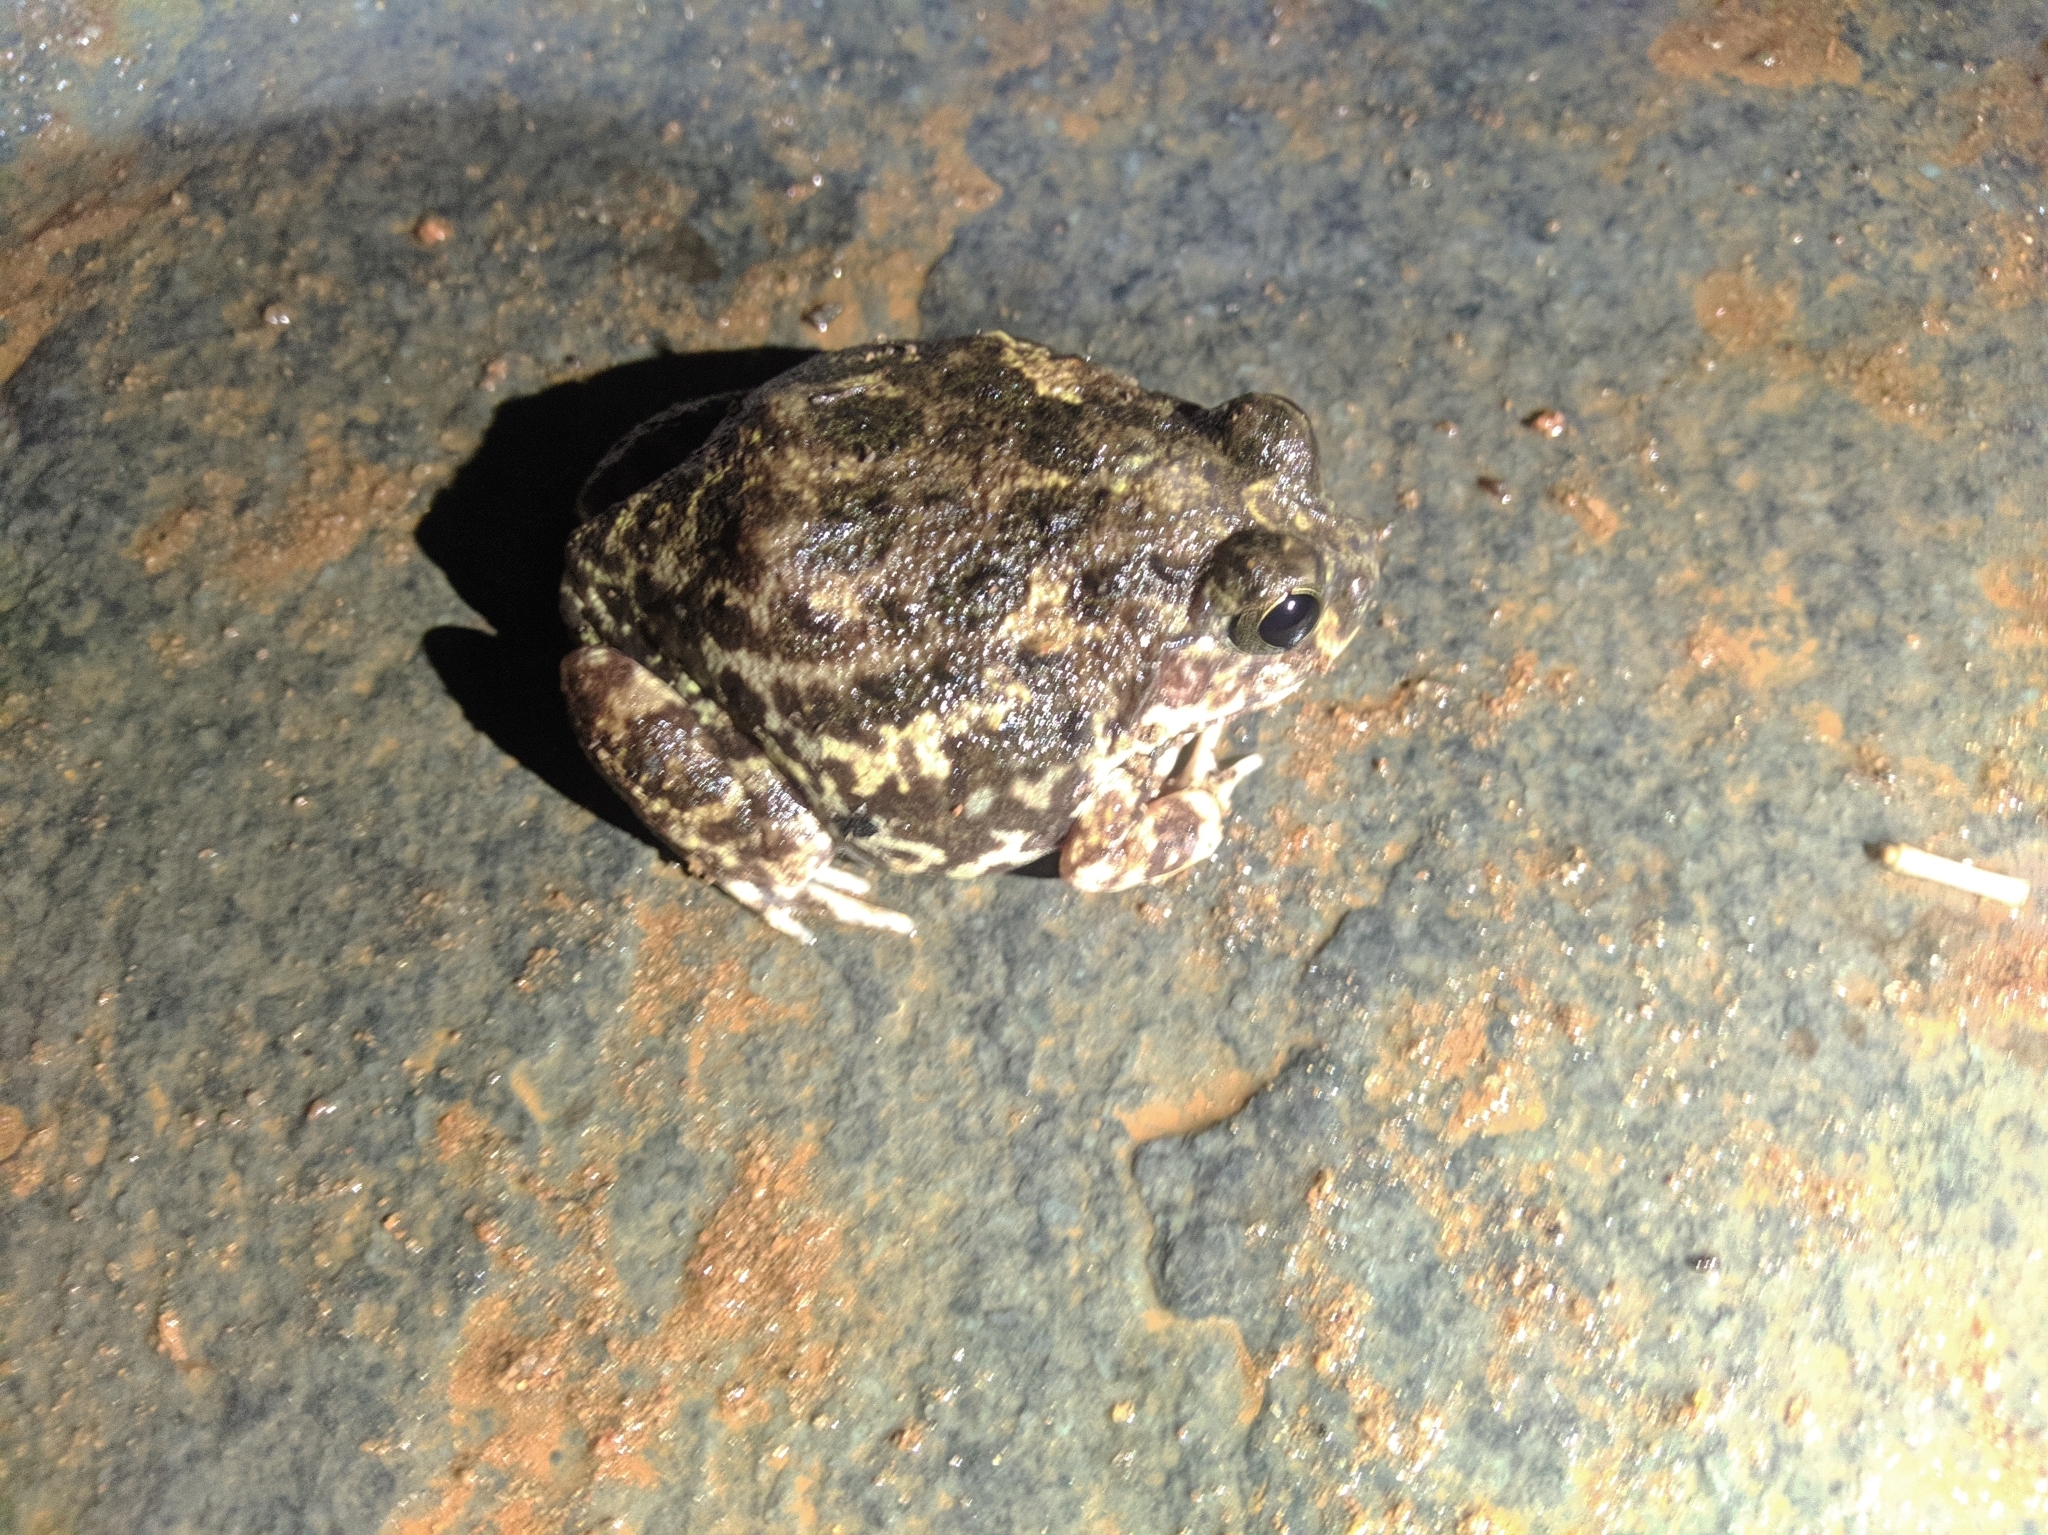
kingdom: Animalia
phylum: Chordata
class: Amphibia
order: Anura
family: Dicroglossidae
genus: Sphaerotheca
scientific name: Sphaerotheca breviceps
